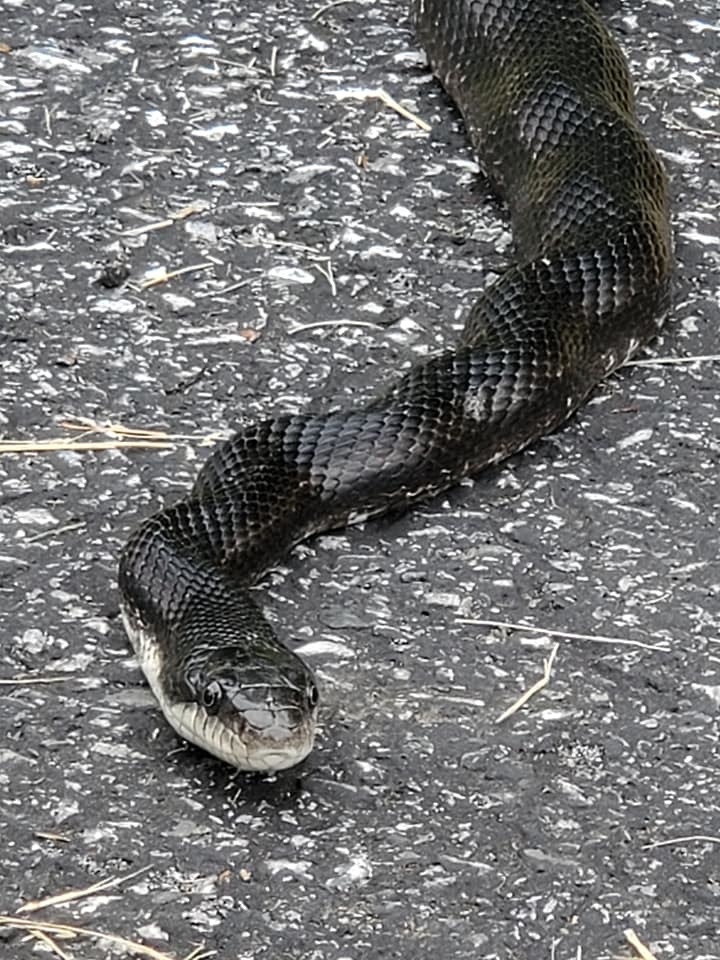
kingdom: Animalia
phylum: Chordata
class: Squamata
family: Colubridae
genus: Pantherophis
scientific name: Pantherophis alleghaniensis
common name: Eastern rat snake
